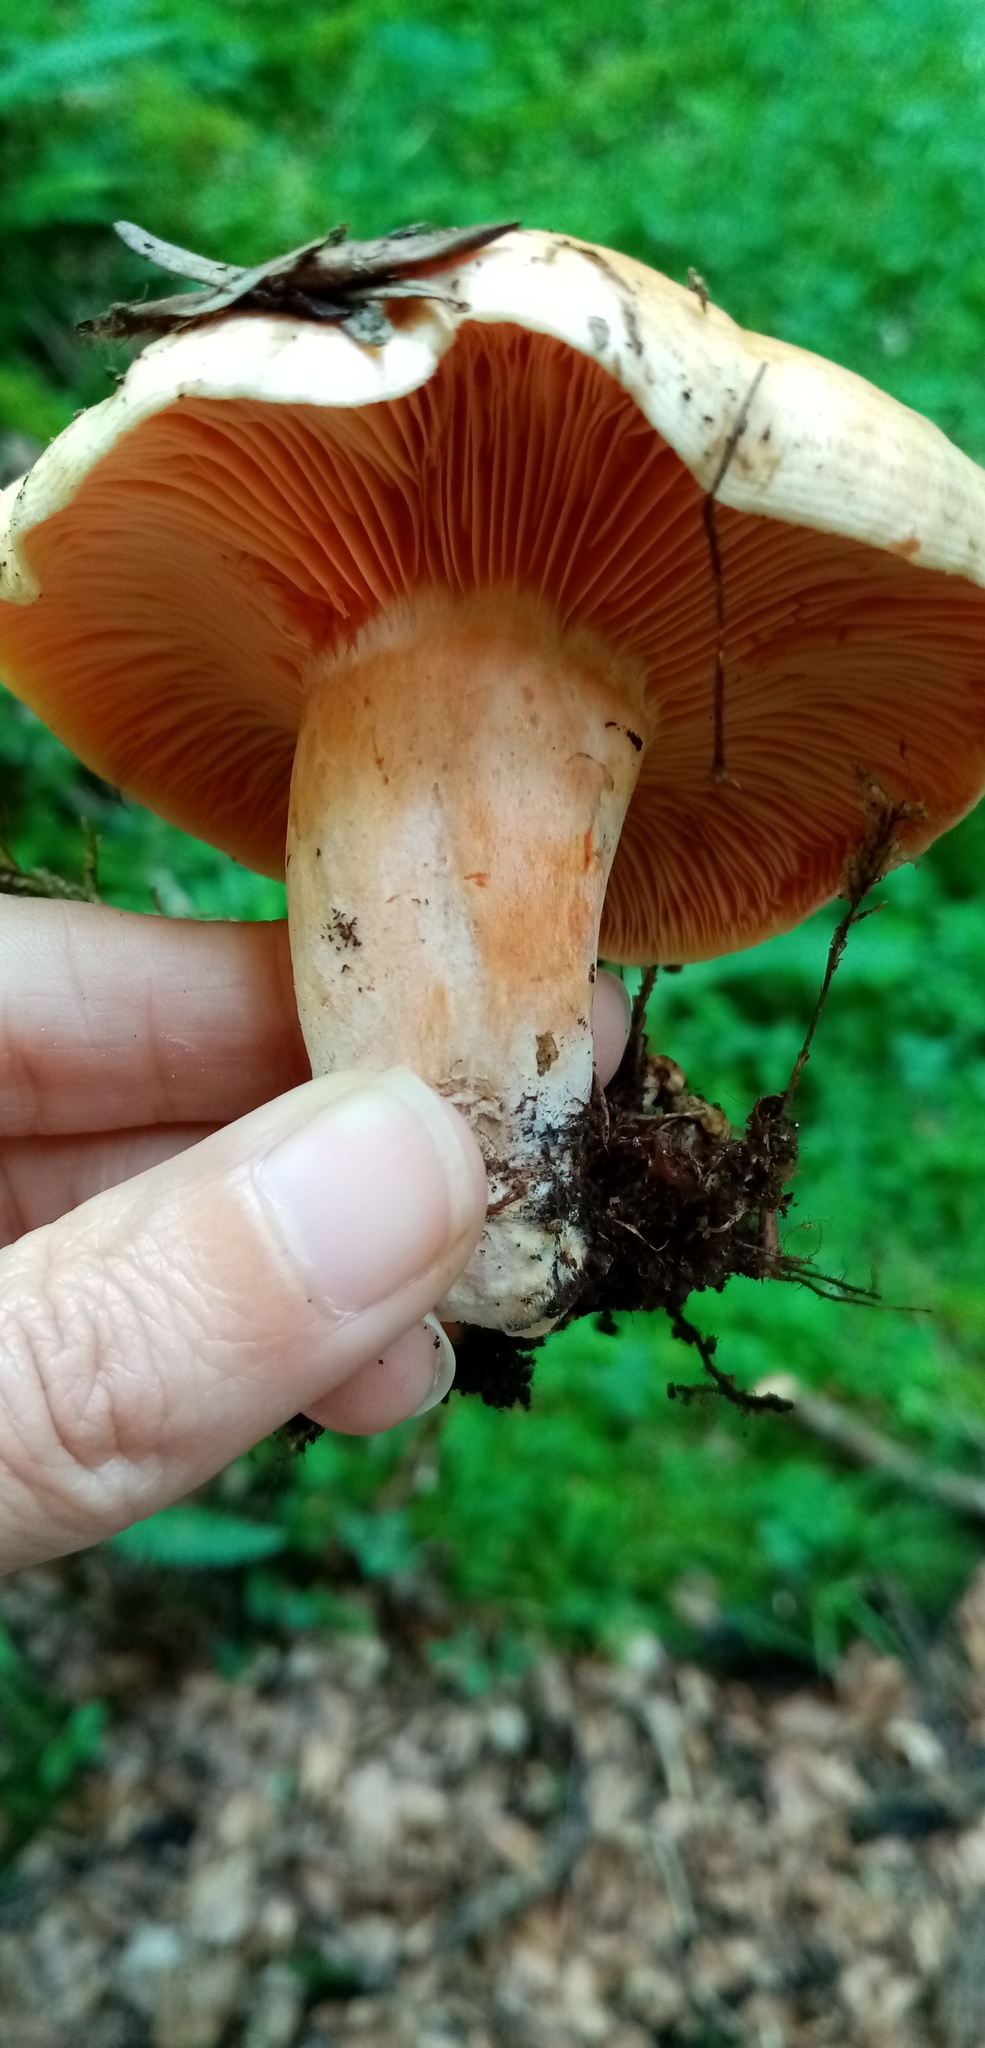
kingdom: Fungi
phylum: Basidiomycota
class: Agaricomycetes
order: Russulales
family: Russulaceae
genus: Lactarius
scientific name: Lactarius deliciosus
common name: Saffron milk-cap
